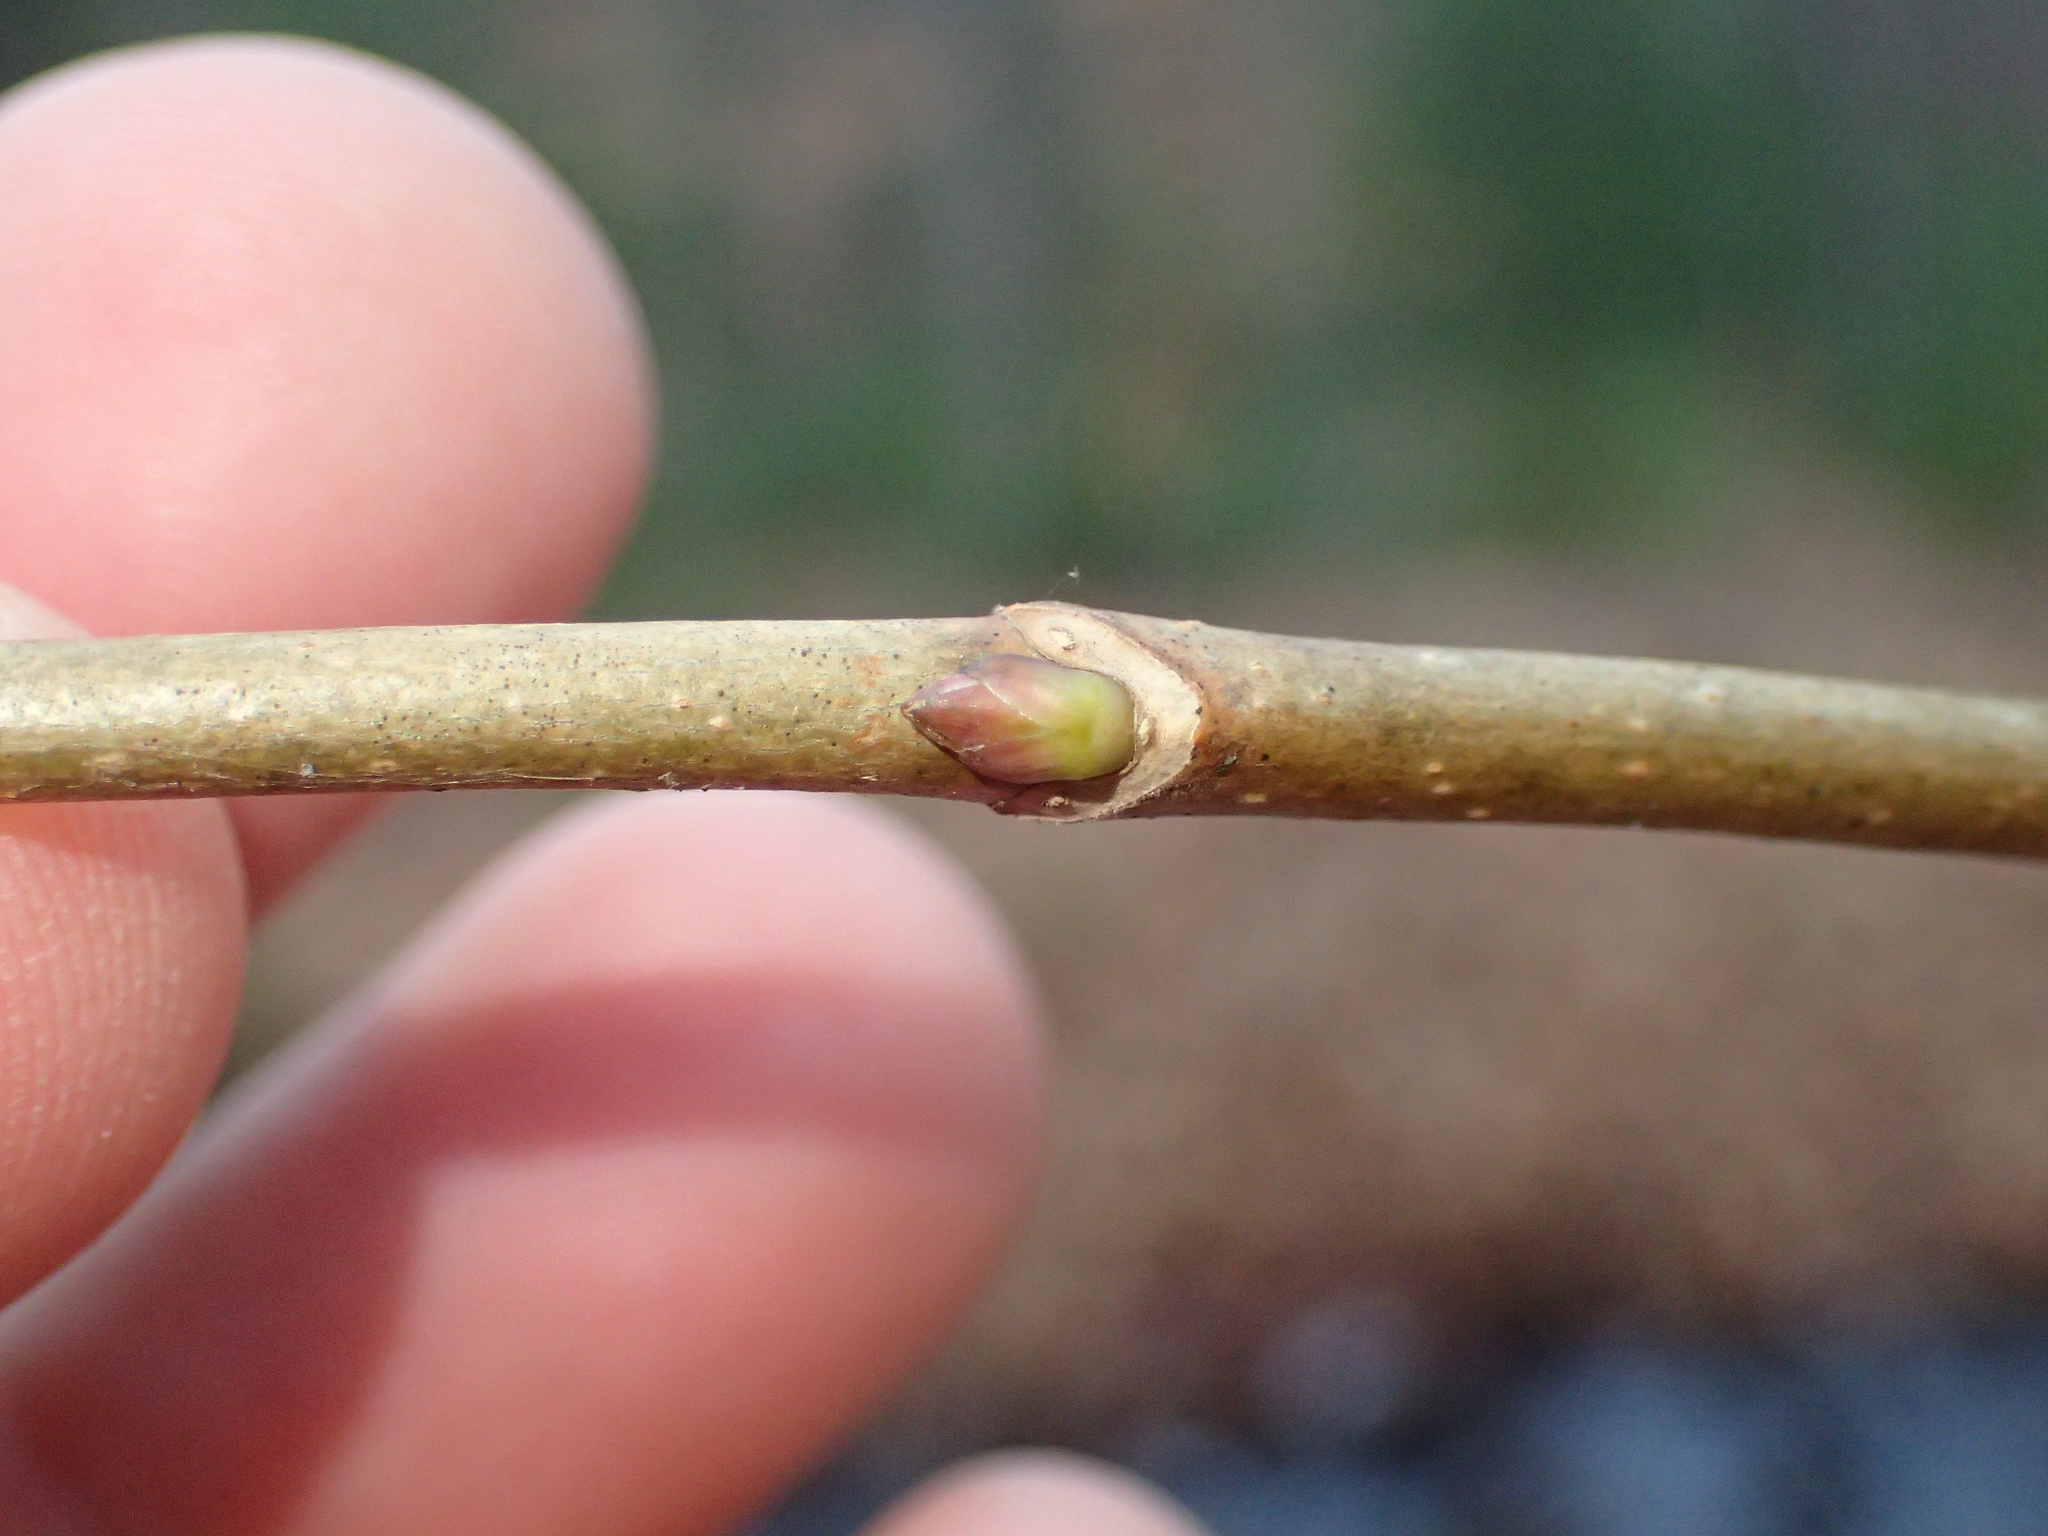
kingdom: Plantae
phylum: Tracheophyta
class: Magnoliopsida
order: Sapindales
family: Sapindaceae
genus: Acer
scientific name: Acer platanoides
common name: Norway maple
